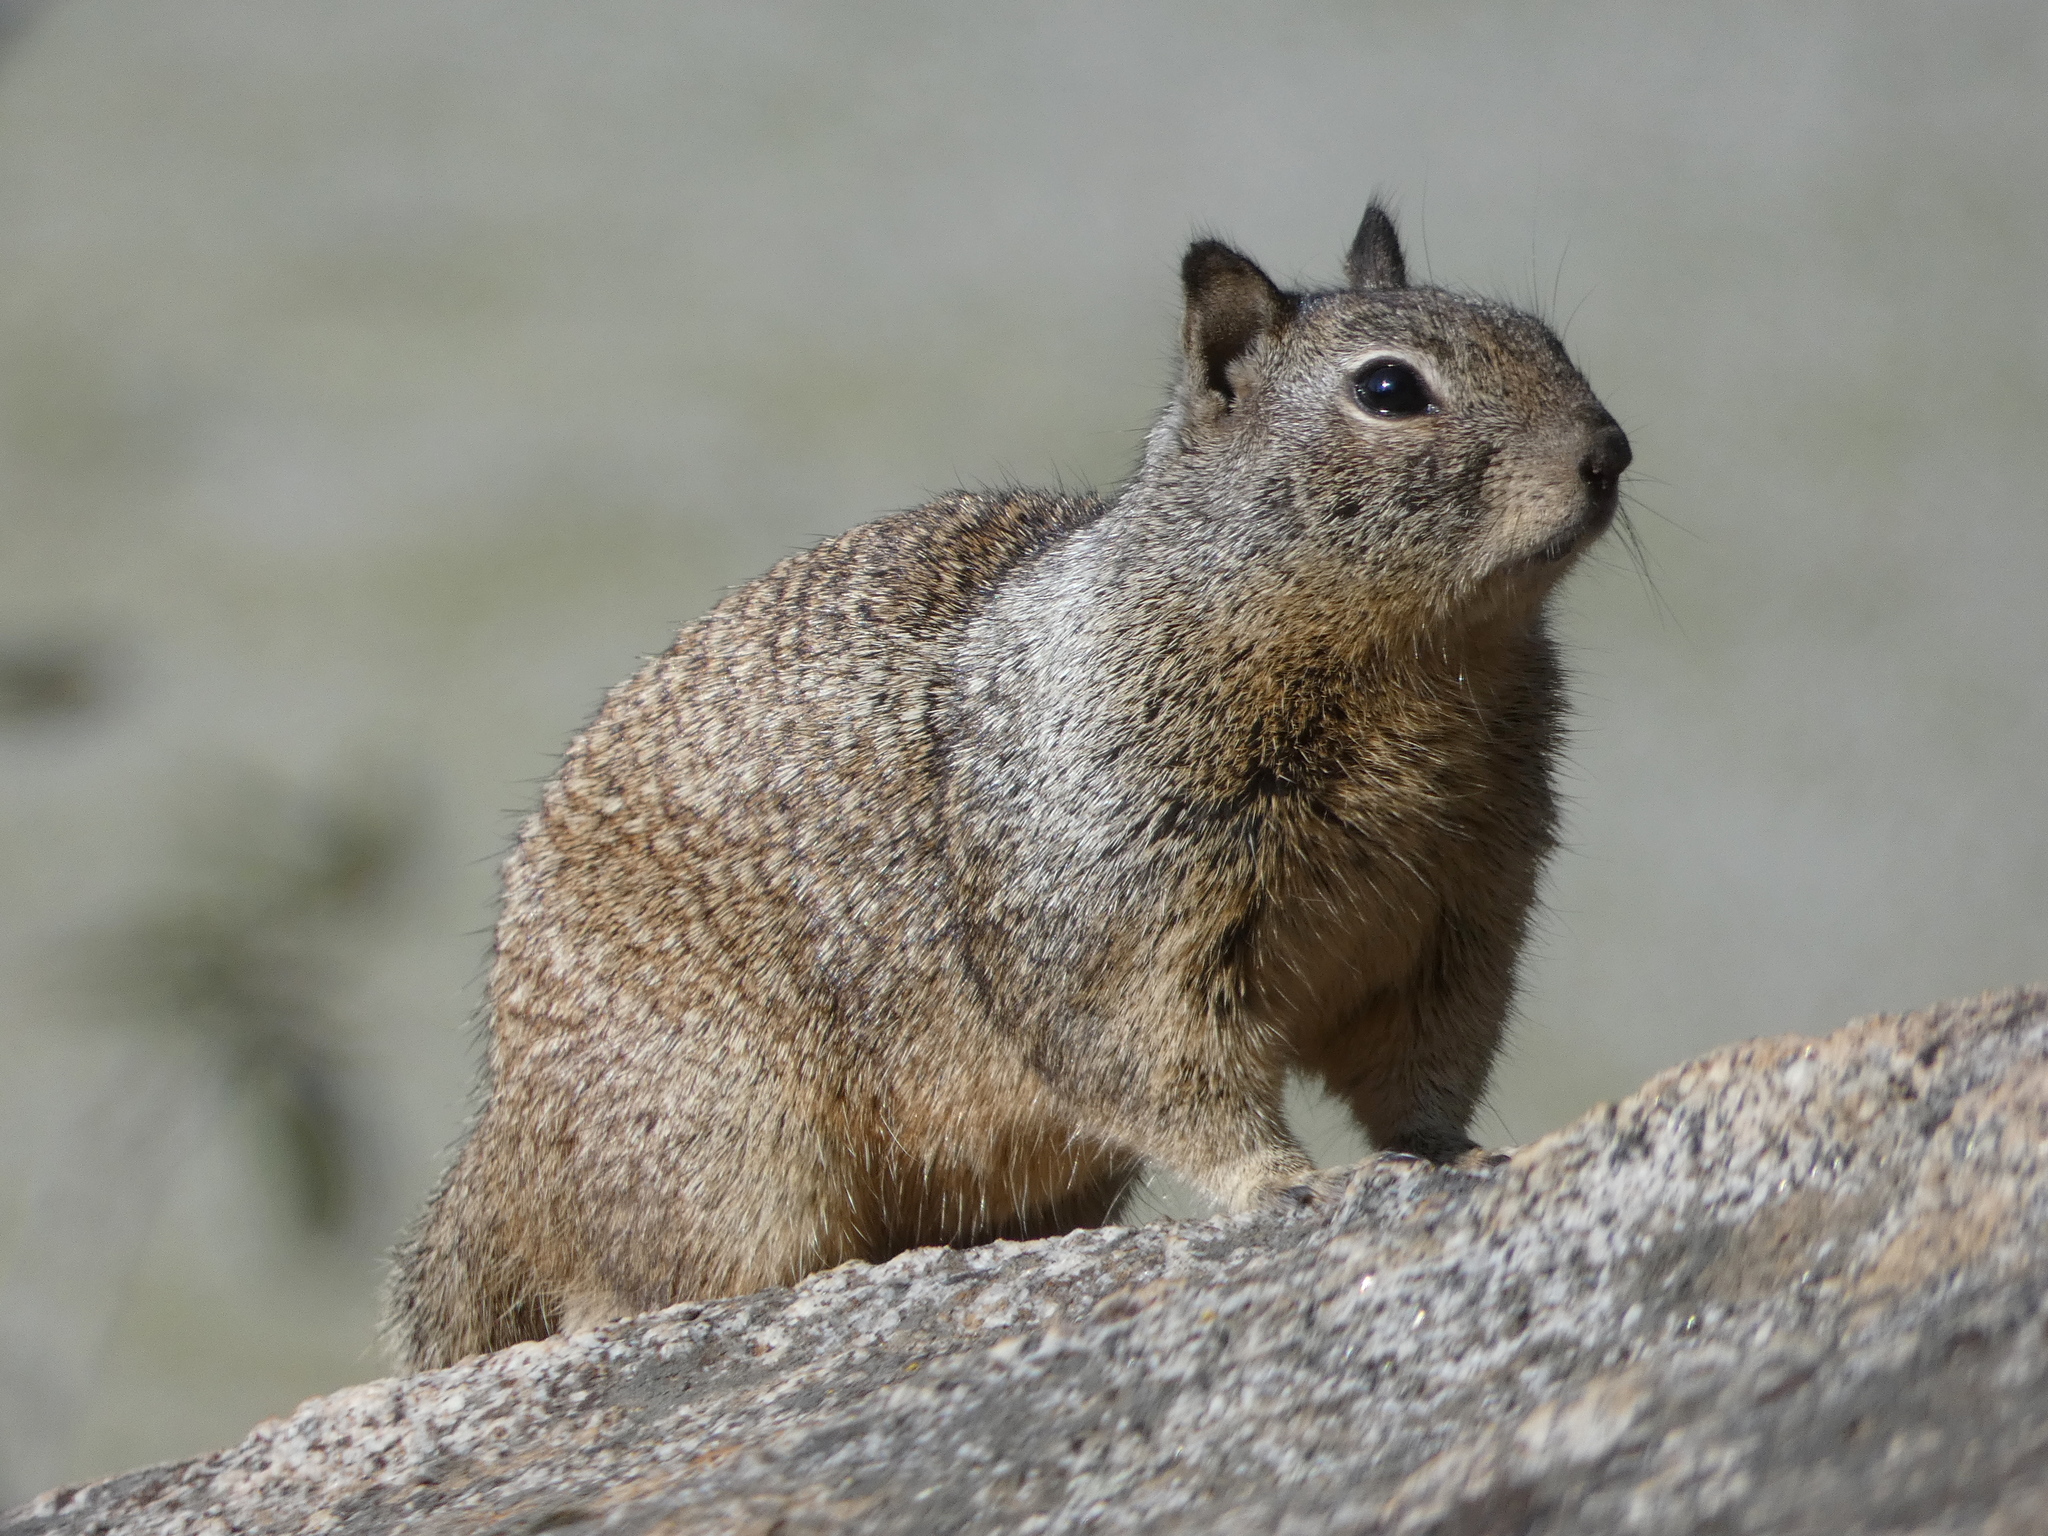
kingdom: Animalia
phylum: Chordata
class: Mammalia
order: Rodentia
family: Sciuridae
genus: Otospermophilus
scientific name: Otospermophilus beecheyi
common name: California ground squirrel
